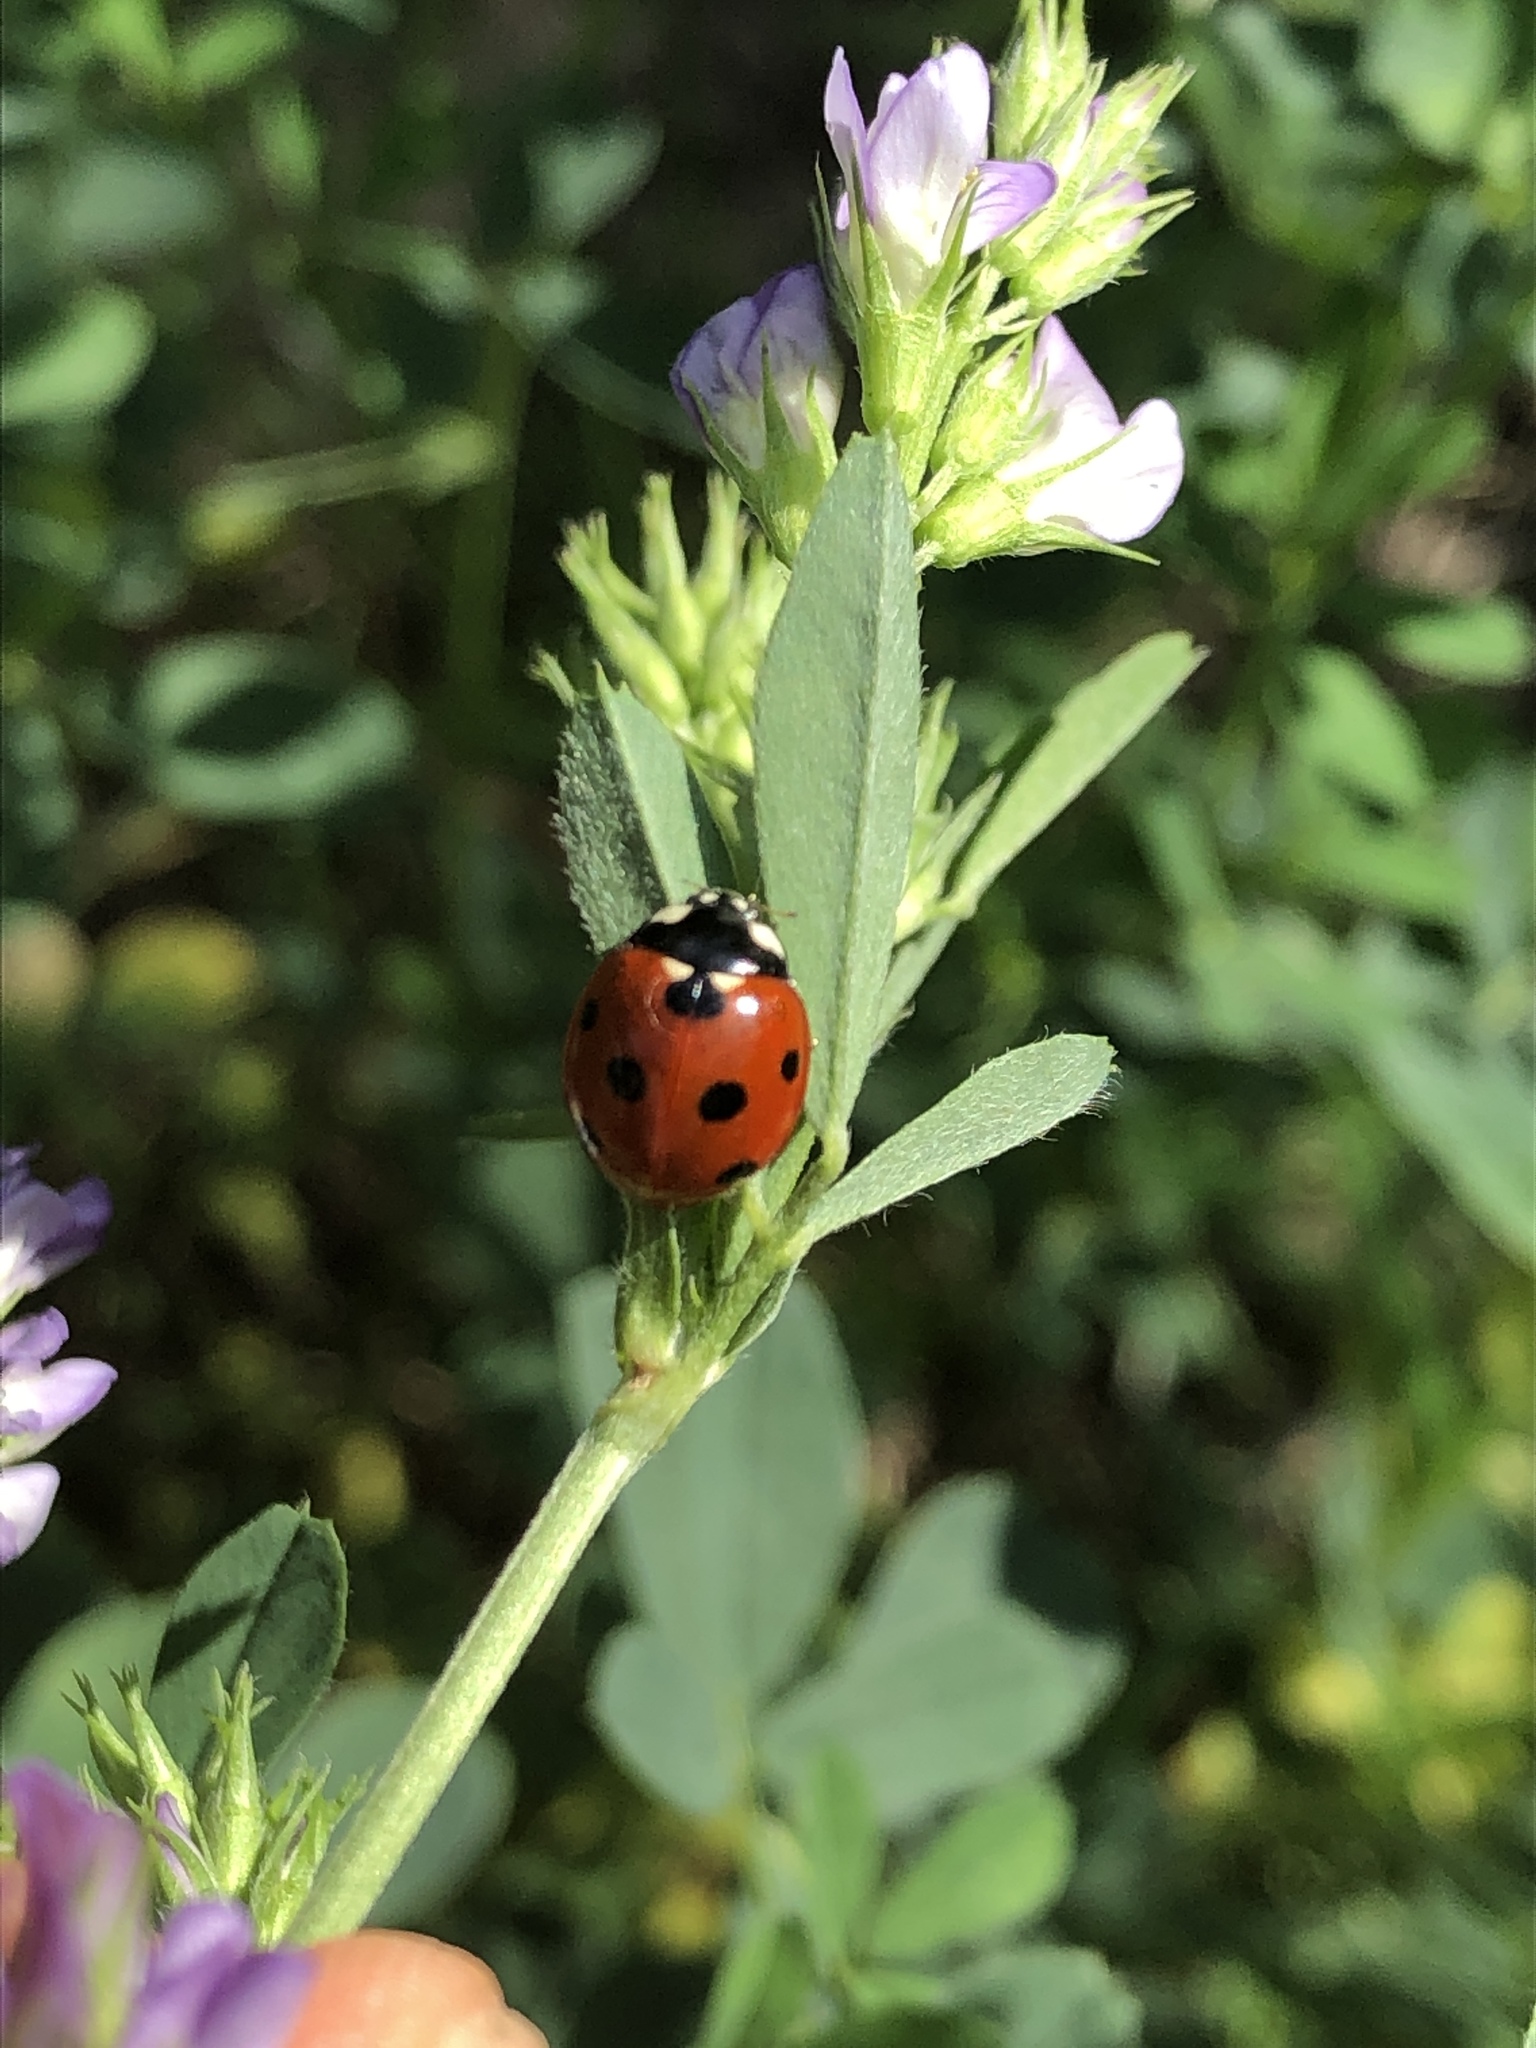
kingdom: Animalia
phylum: Arthropoda
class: Insecta
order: Coleoptera
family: Coccinellidae
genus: Coccinella
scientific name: Coccinella septempunctata
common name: Sevenspotted lady beetle
